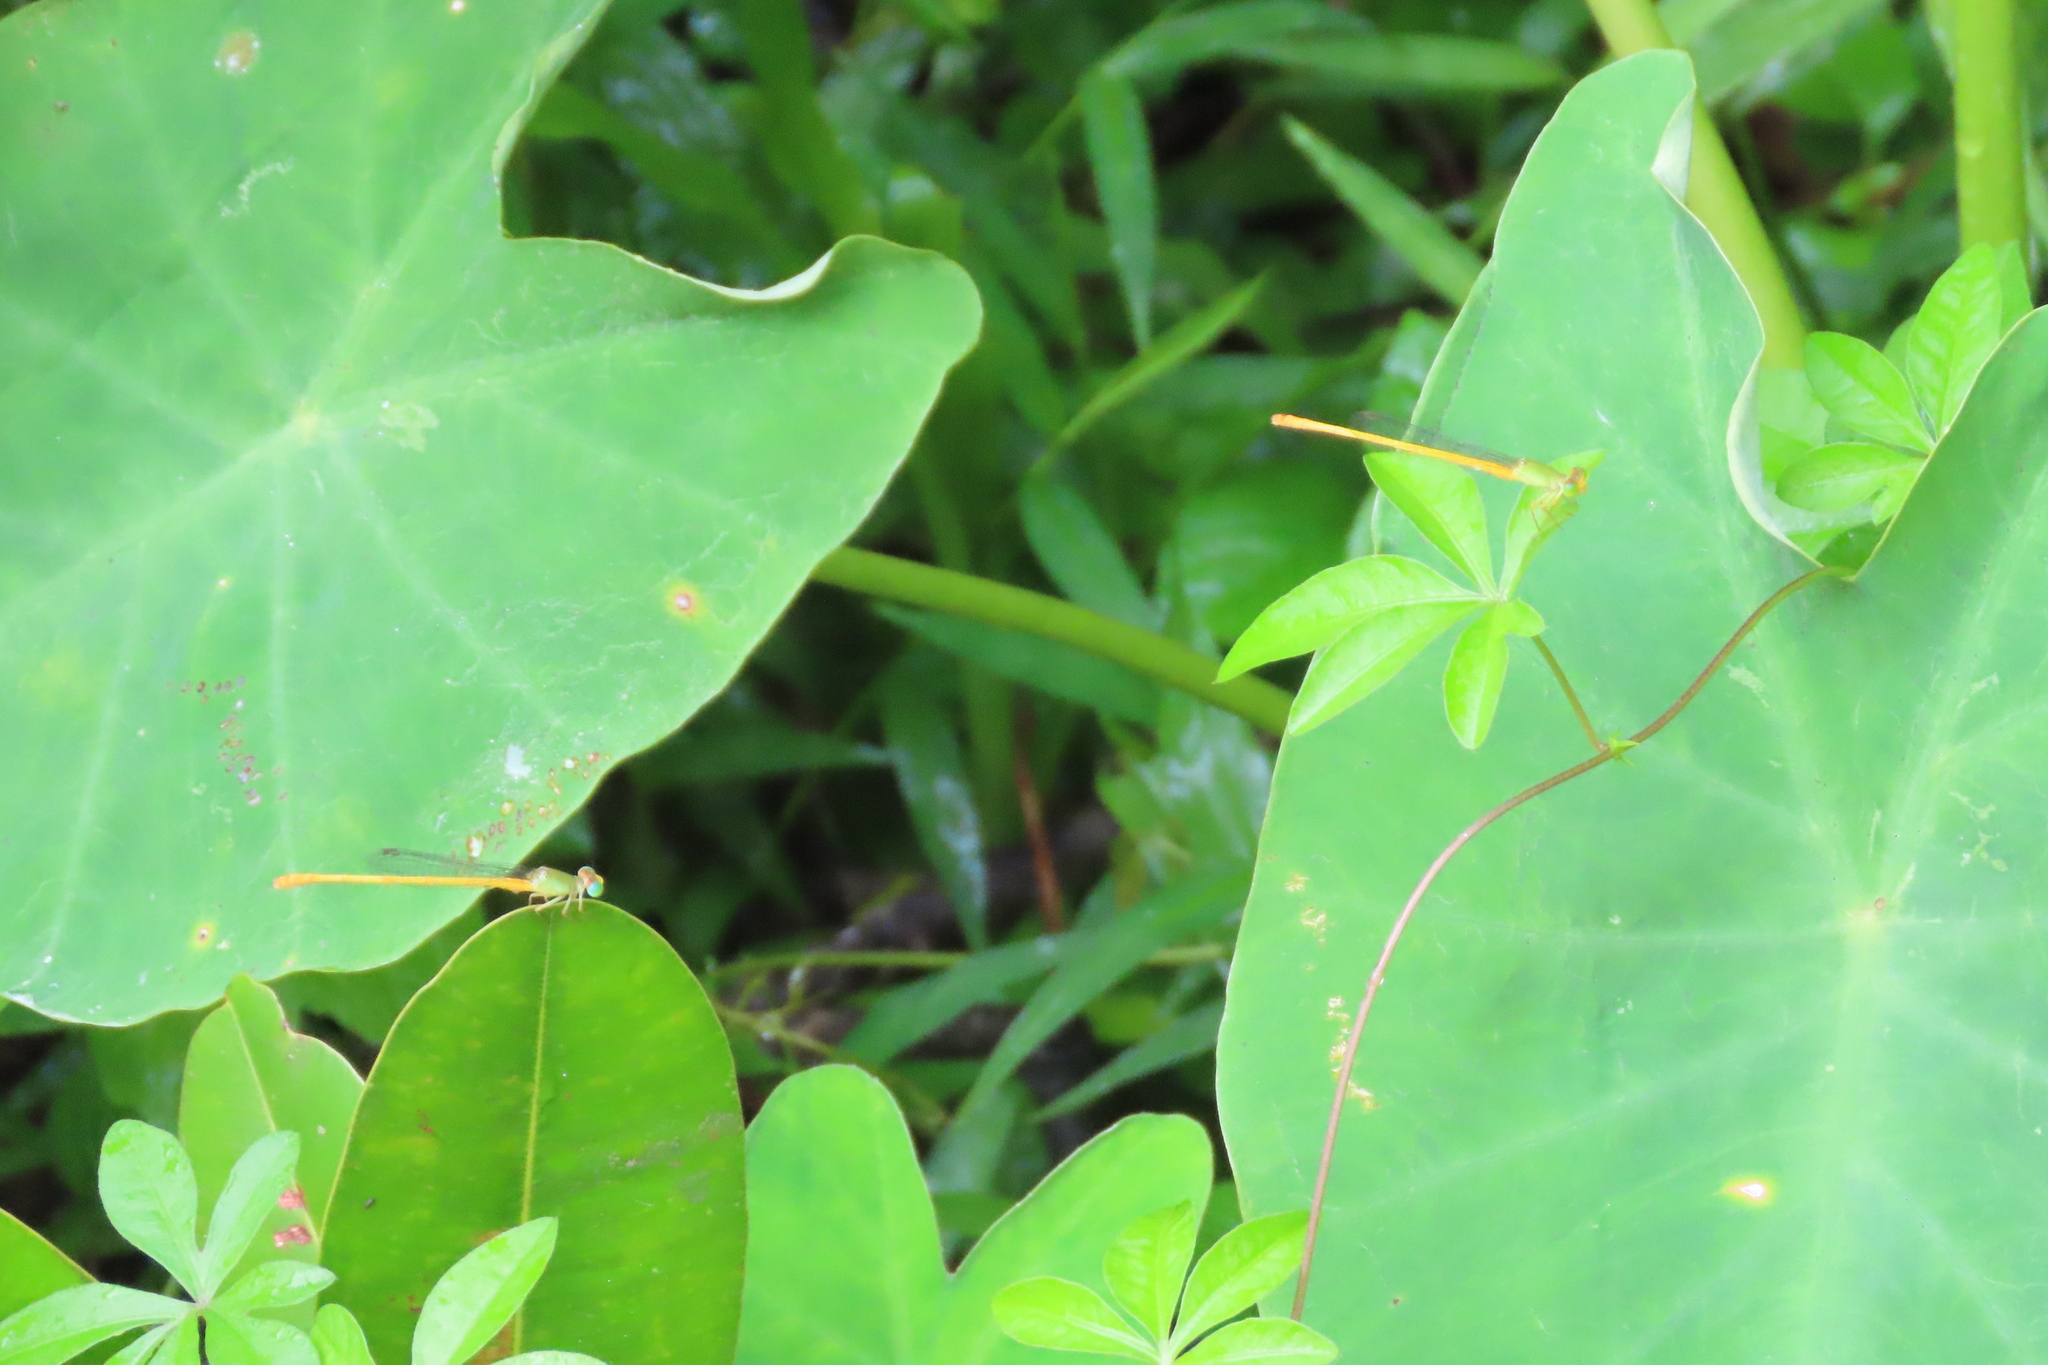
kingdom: Animalia
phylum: Arthropoda
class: Insecta
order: Odonata
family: Coenagrionidae
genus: Ceriagrion
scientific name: Ceriagrion coromandelianum
